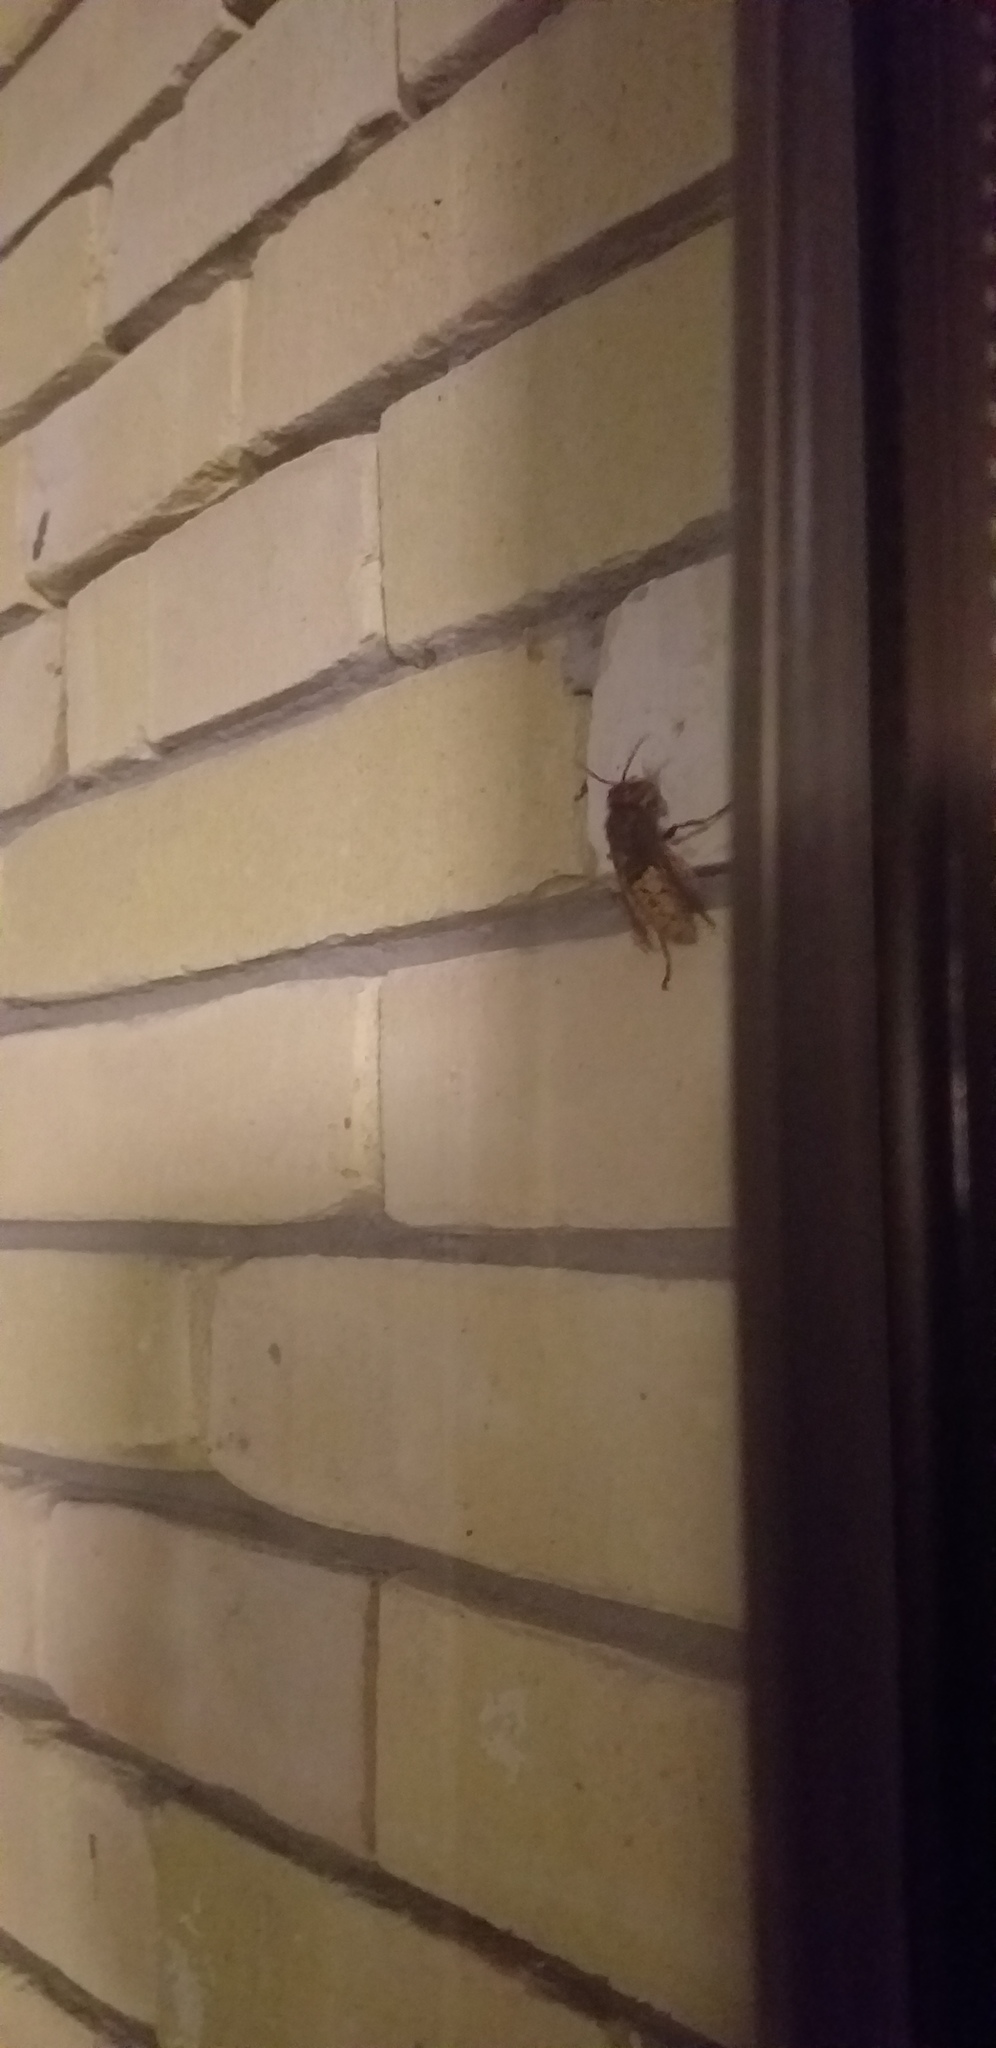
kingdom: Animalia
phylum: Arthropoda
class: Insecta
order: Hymenoptera
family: Vespidae
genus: Vespa
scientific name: Vespa crabro
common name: Hornet
